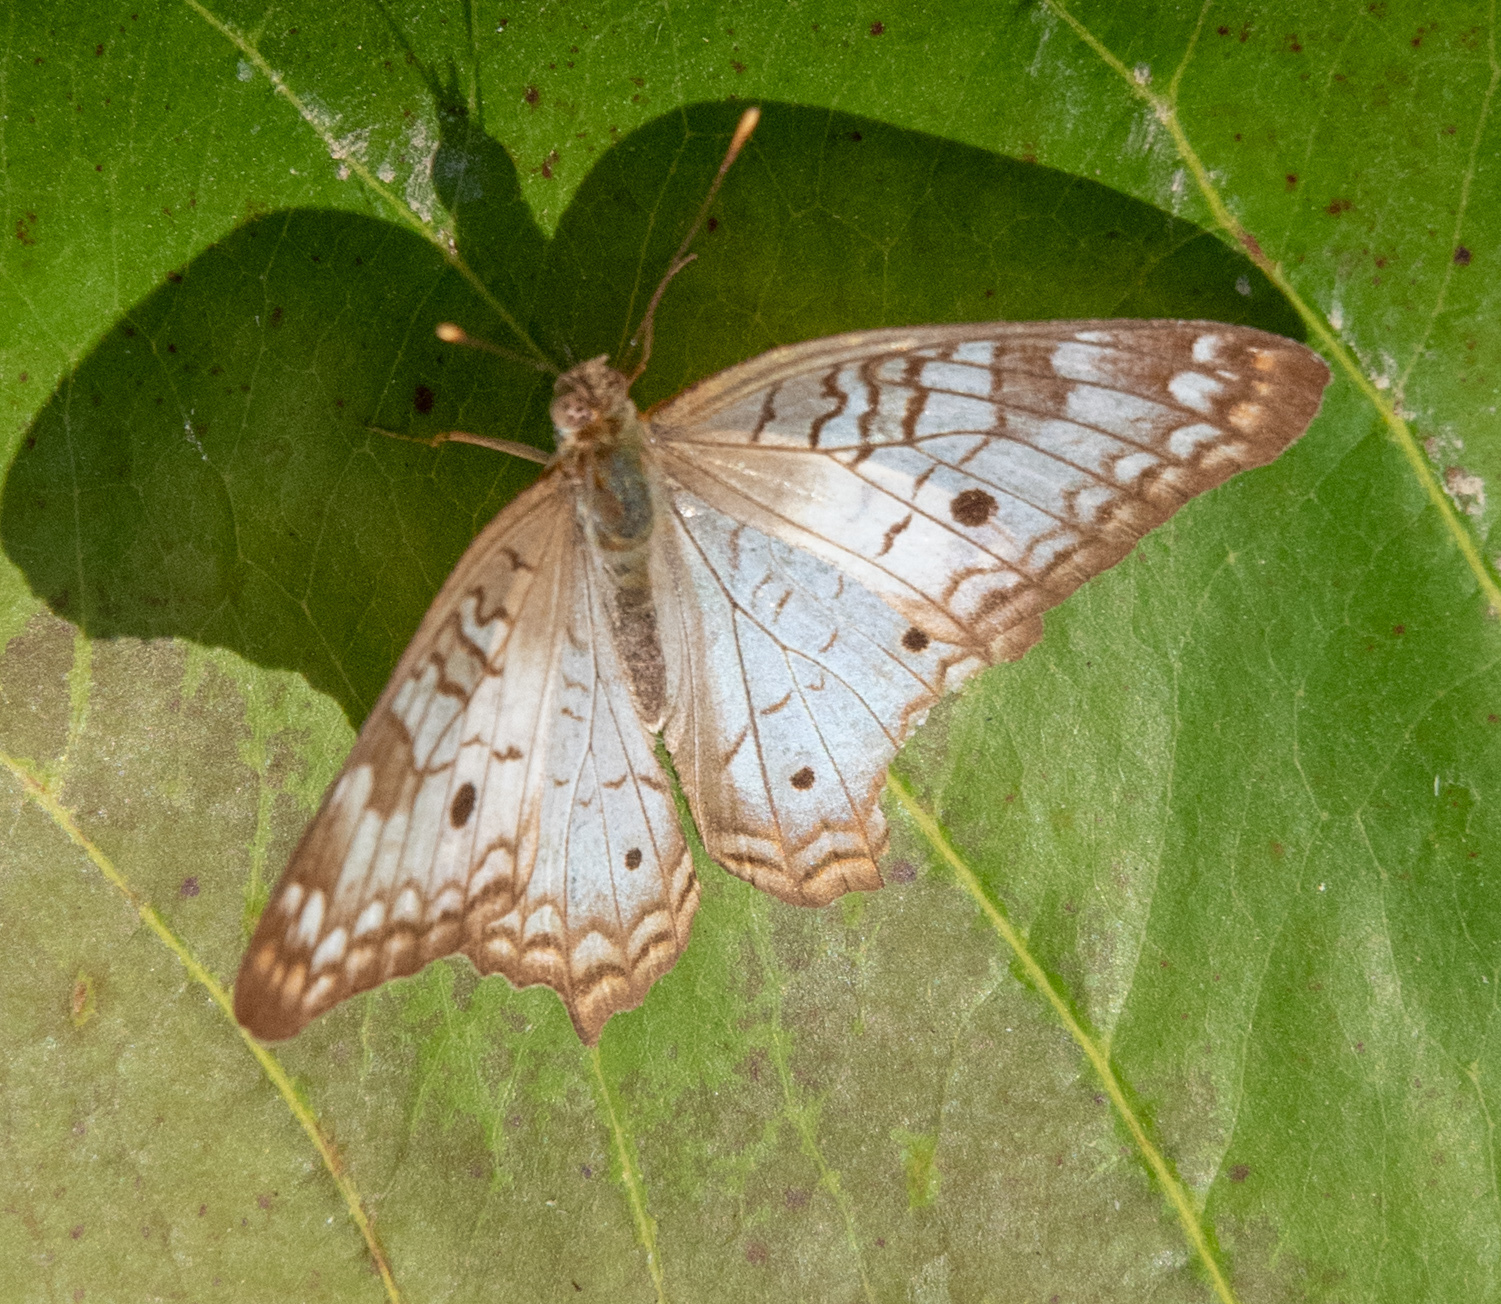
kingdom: Animalia
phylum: Arthropoda
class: Insecta
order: Lepidoptera
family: Nymphalidae
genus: Anartia
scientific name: Anartia jatrophae
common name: White peacock
